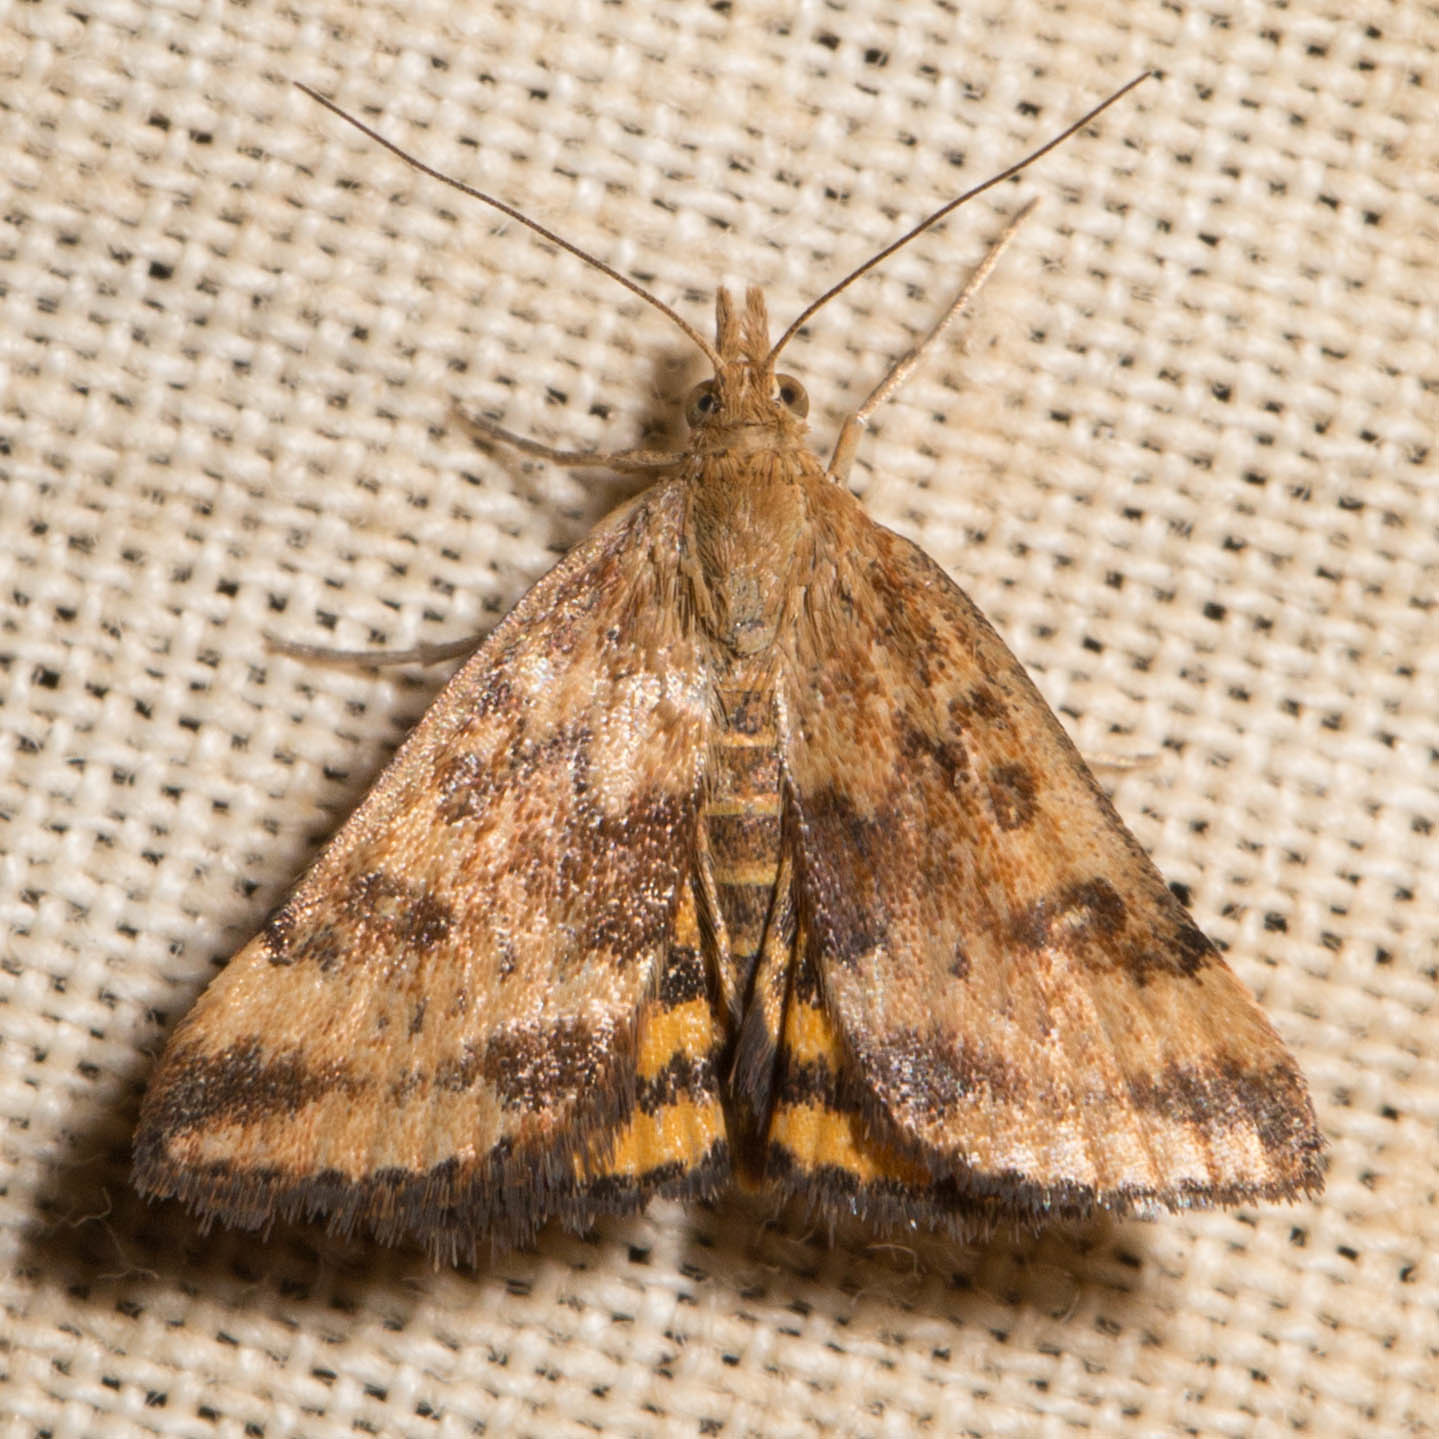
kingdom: Animalia
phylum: Arthropoda
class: Insecta
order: Lepidoptera
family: Crambidae
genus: Pyrausta
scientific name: Pyrausta subsequalis
